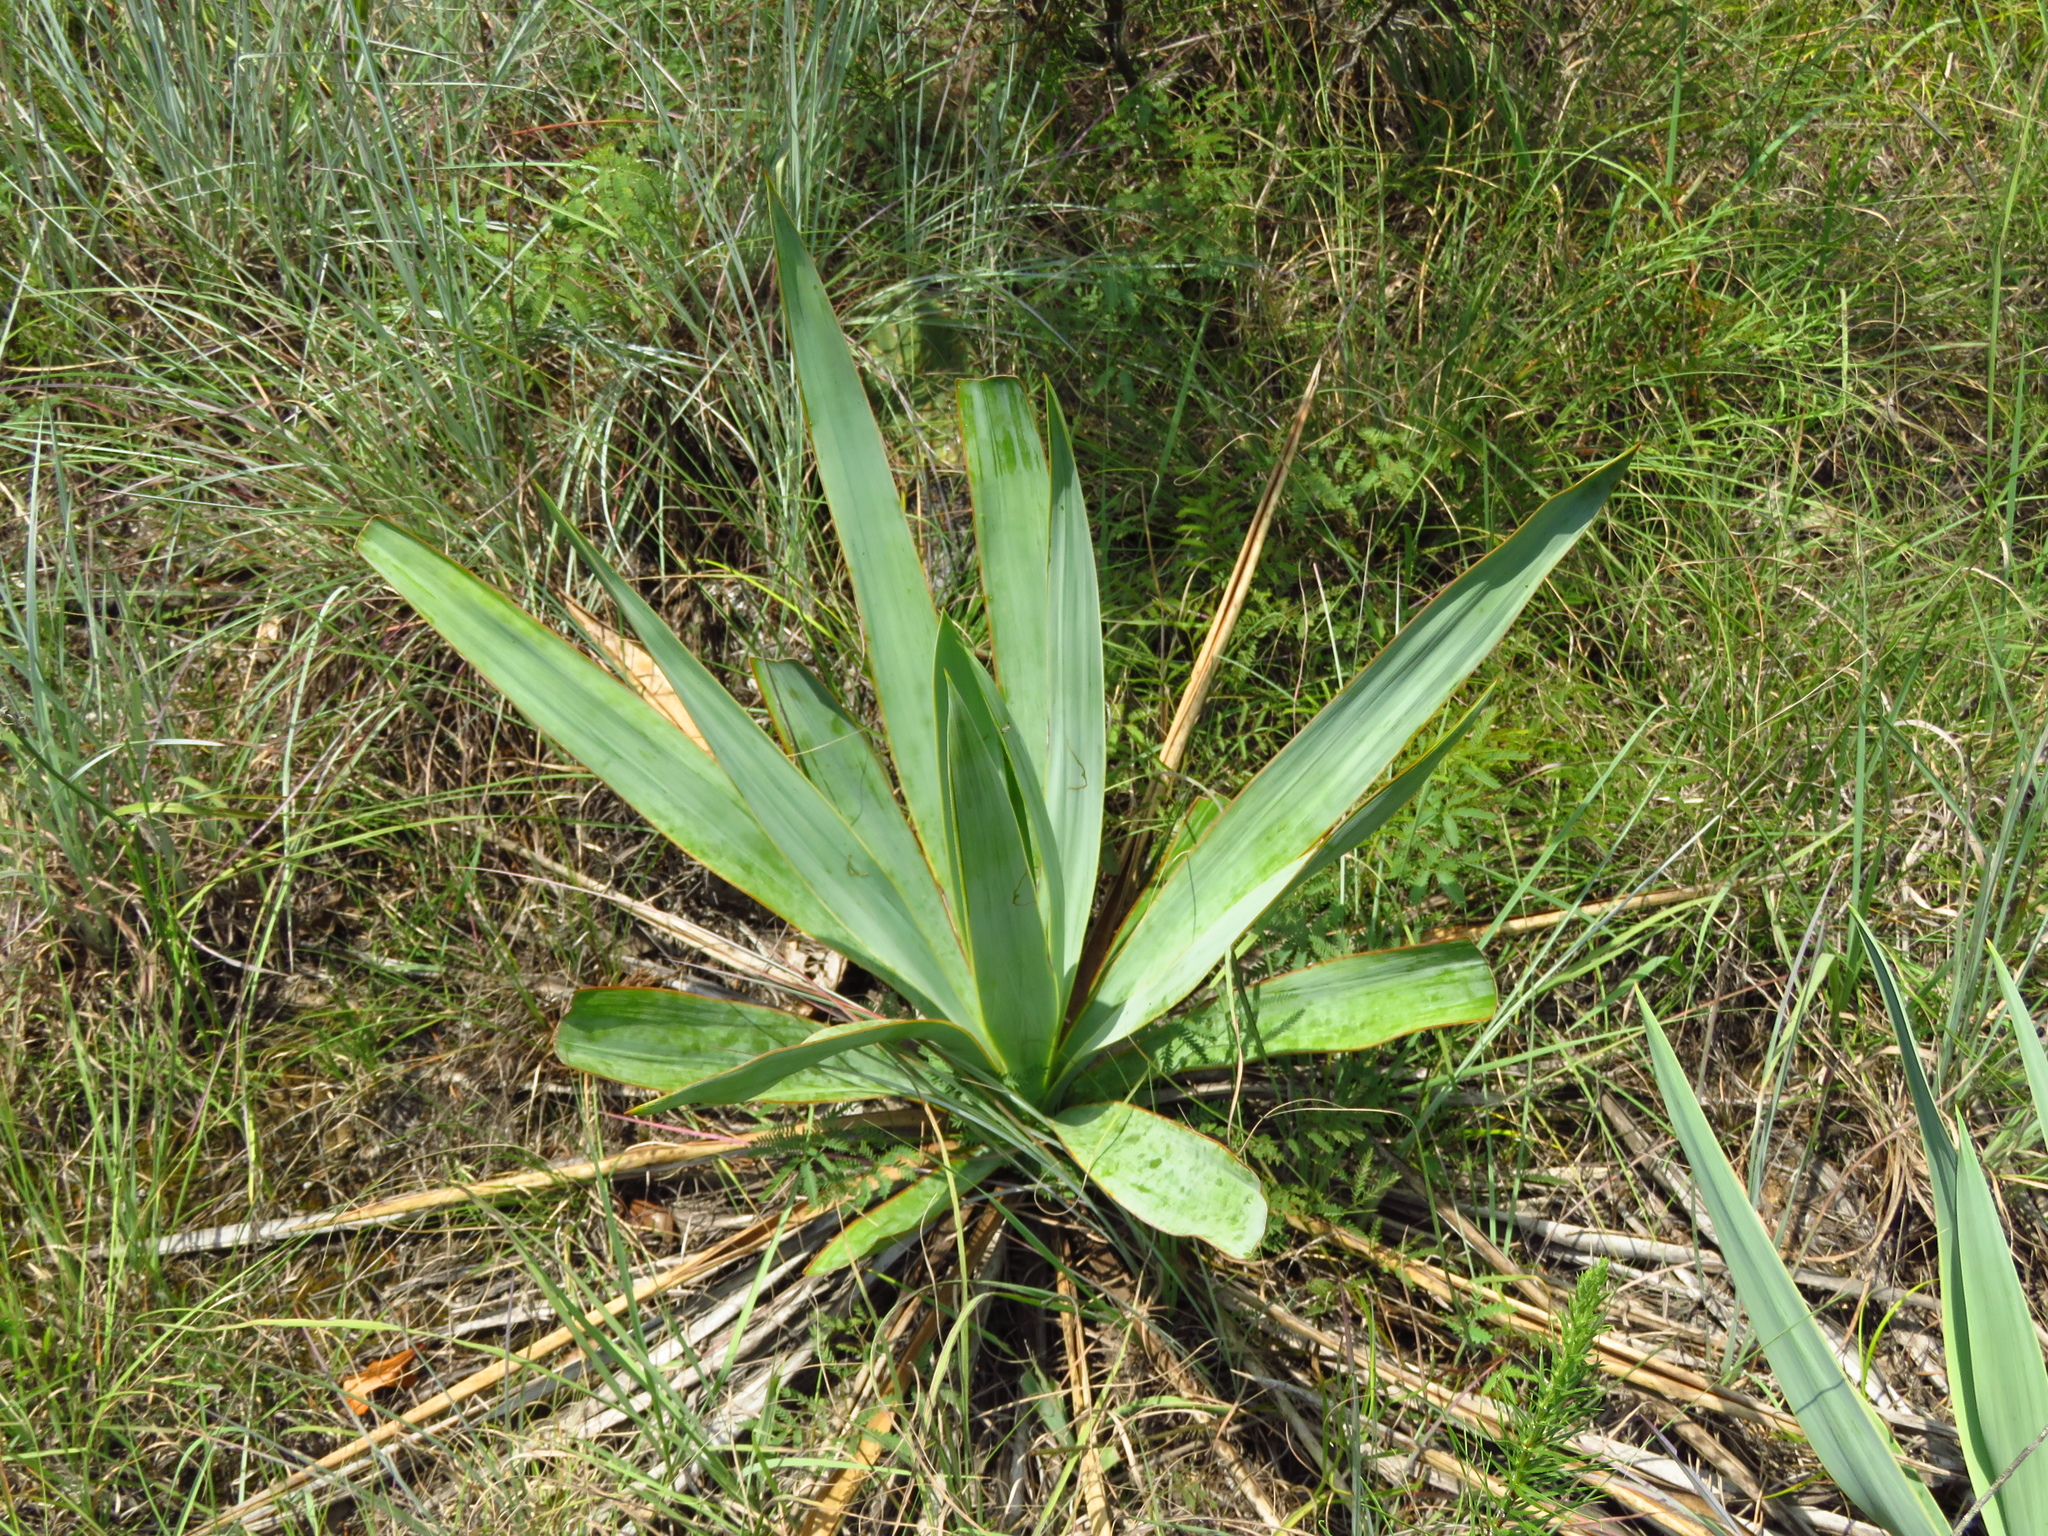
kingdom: Plantae
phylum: Tracheophyta
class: Liliopsida
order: Asparagales
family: Asparagaceae
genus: Yucca
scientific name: Yucca pallida
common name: Pale leaf yucca
